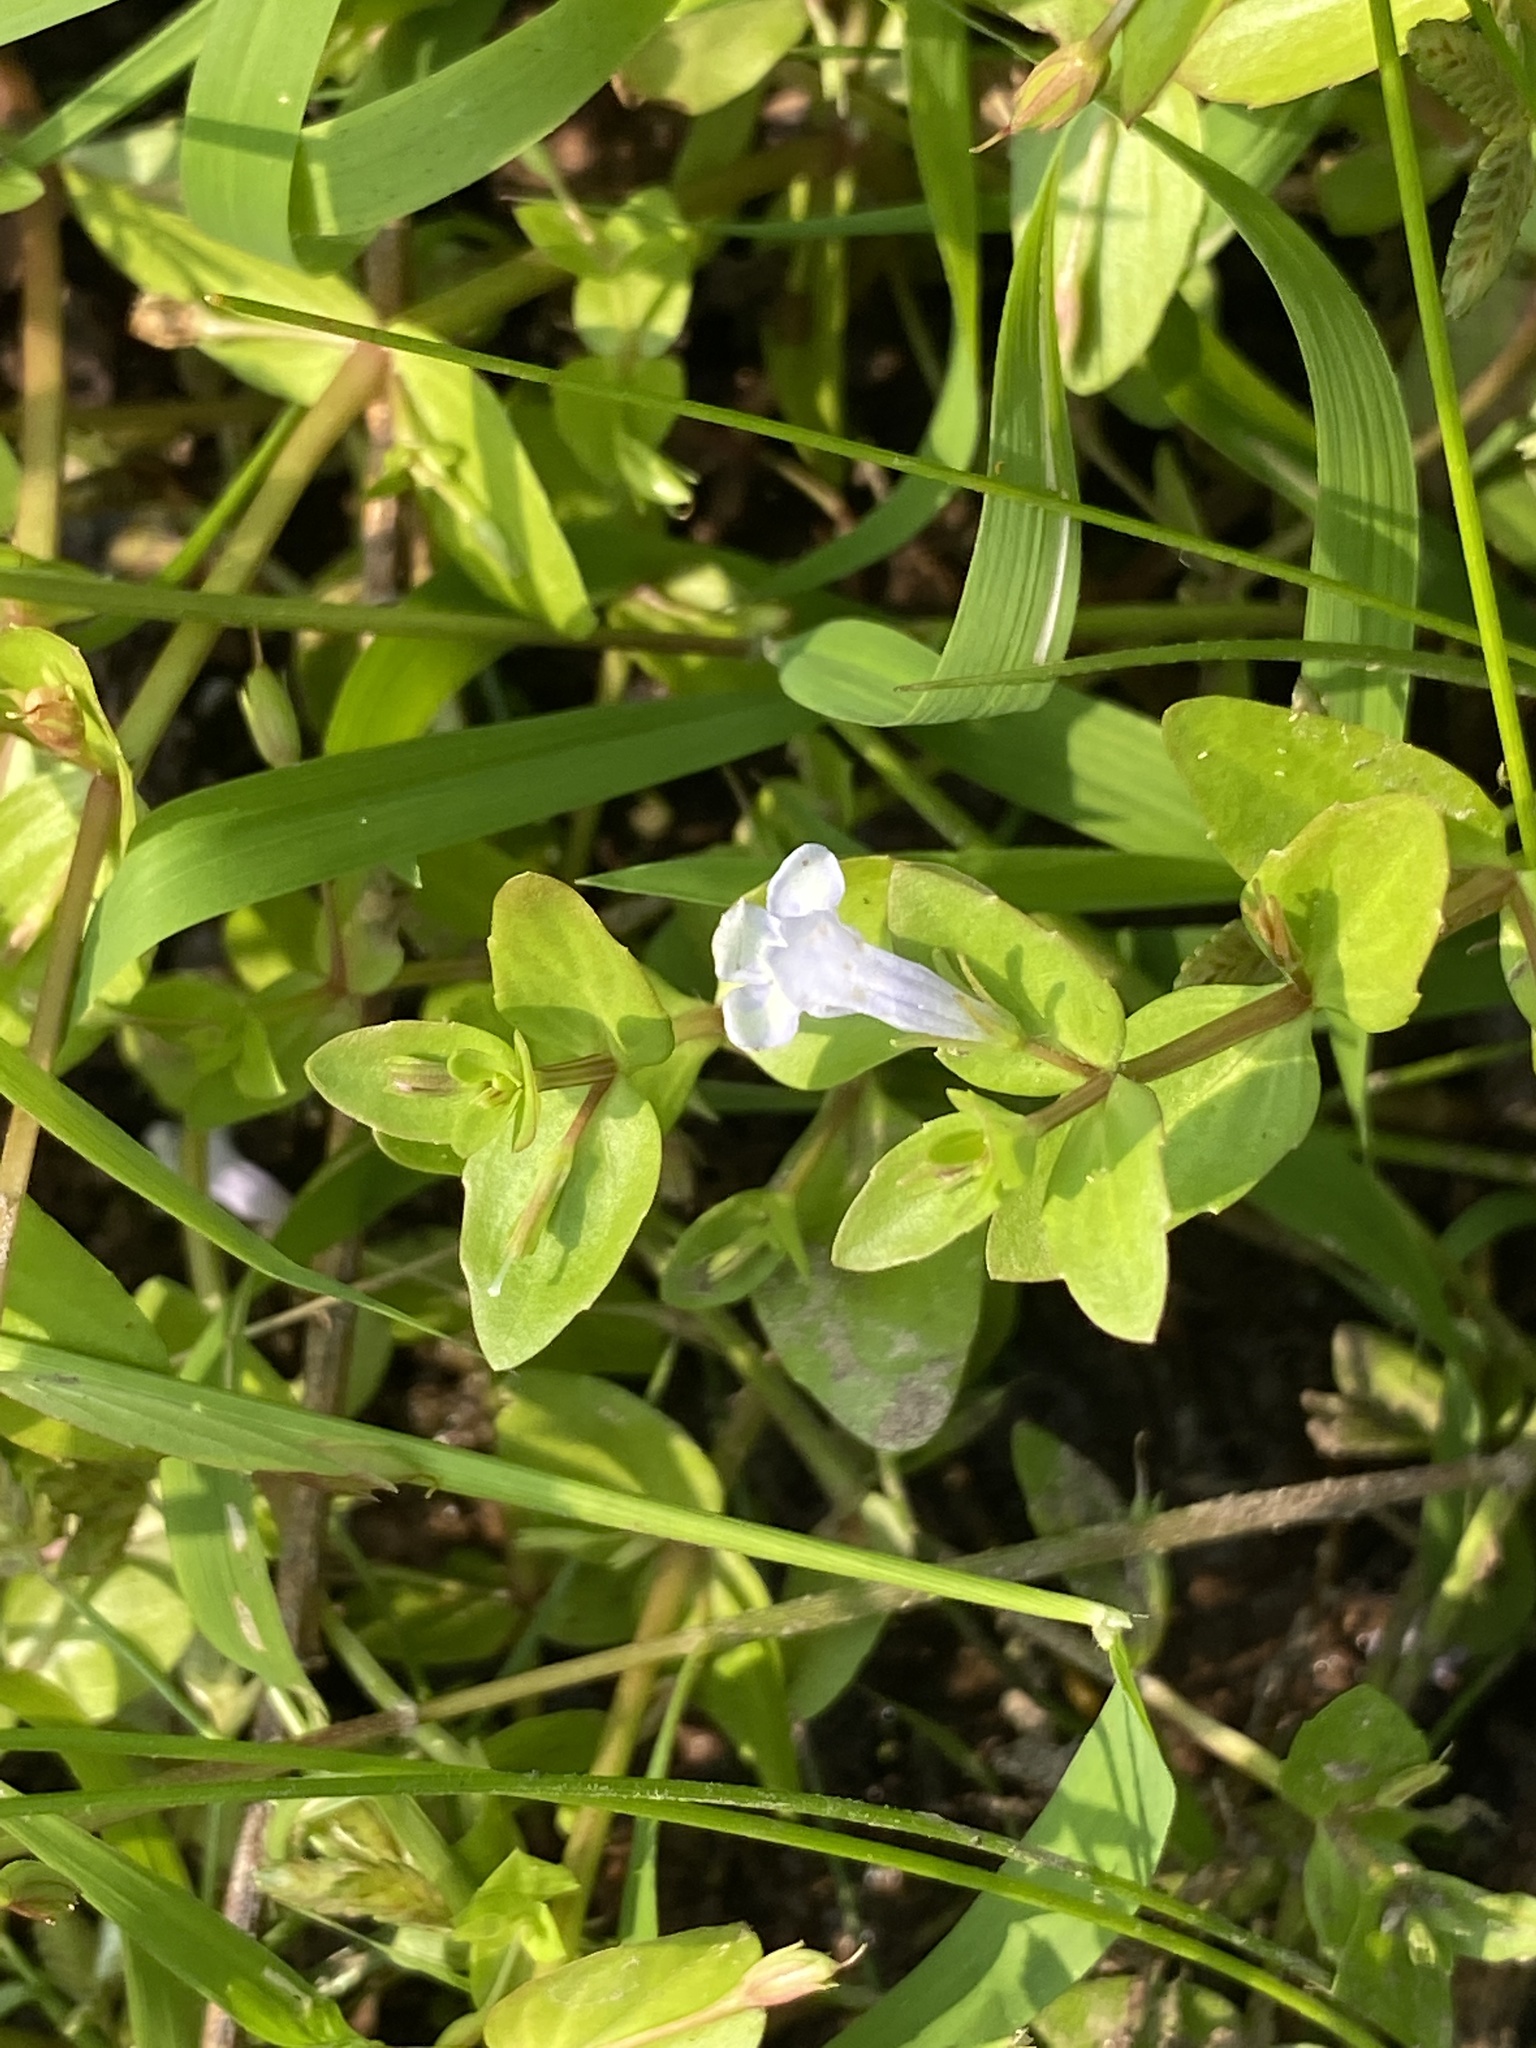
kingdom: Plantae
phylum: Tracheophyta
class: Magnoliopsida
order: Lamiales
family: Linderniaceae
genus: Lindernia
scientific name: Lindernia dubia
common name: Annual false pimpernel
